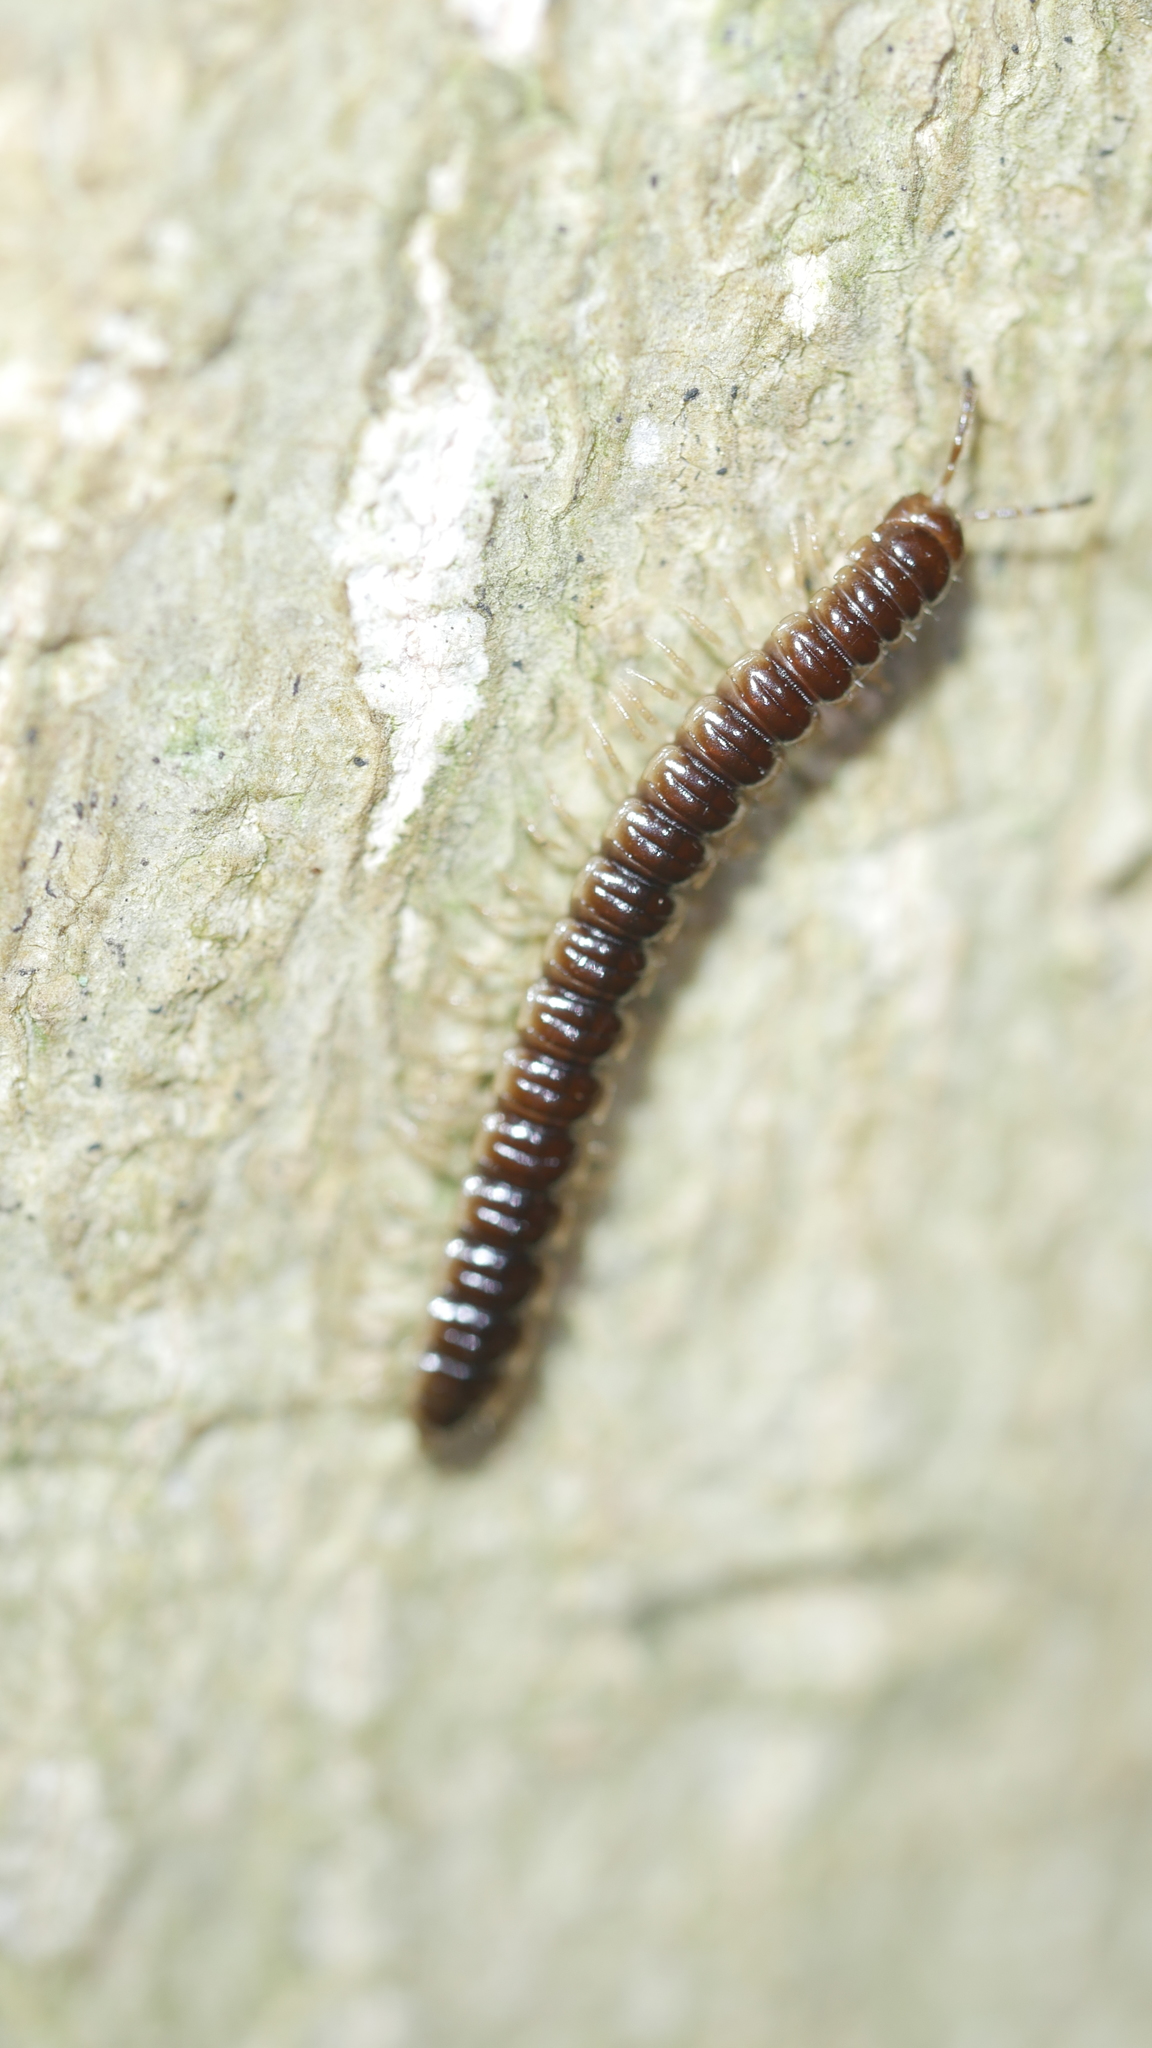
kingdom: Animalia
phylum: Arthropoda
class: Diplopoda
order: Polydesmida
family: Paradoxosomatidae
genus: Oxidus
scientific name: Oxidus gracilis
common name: Greenhouse millipede
